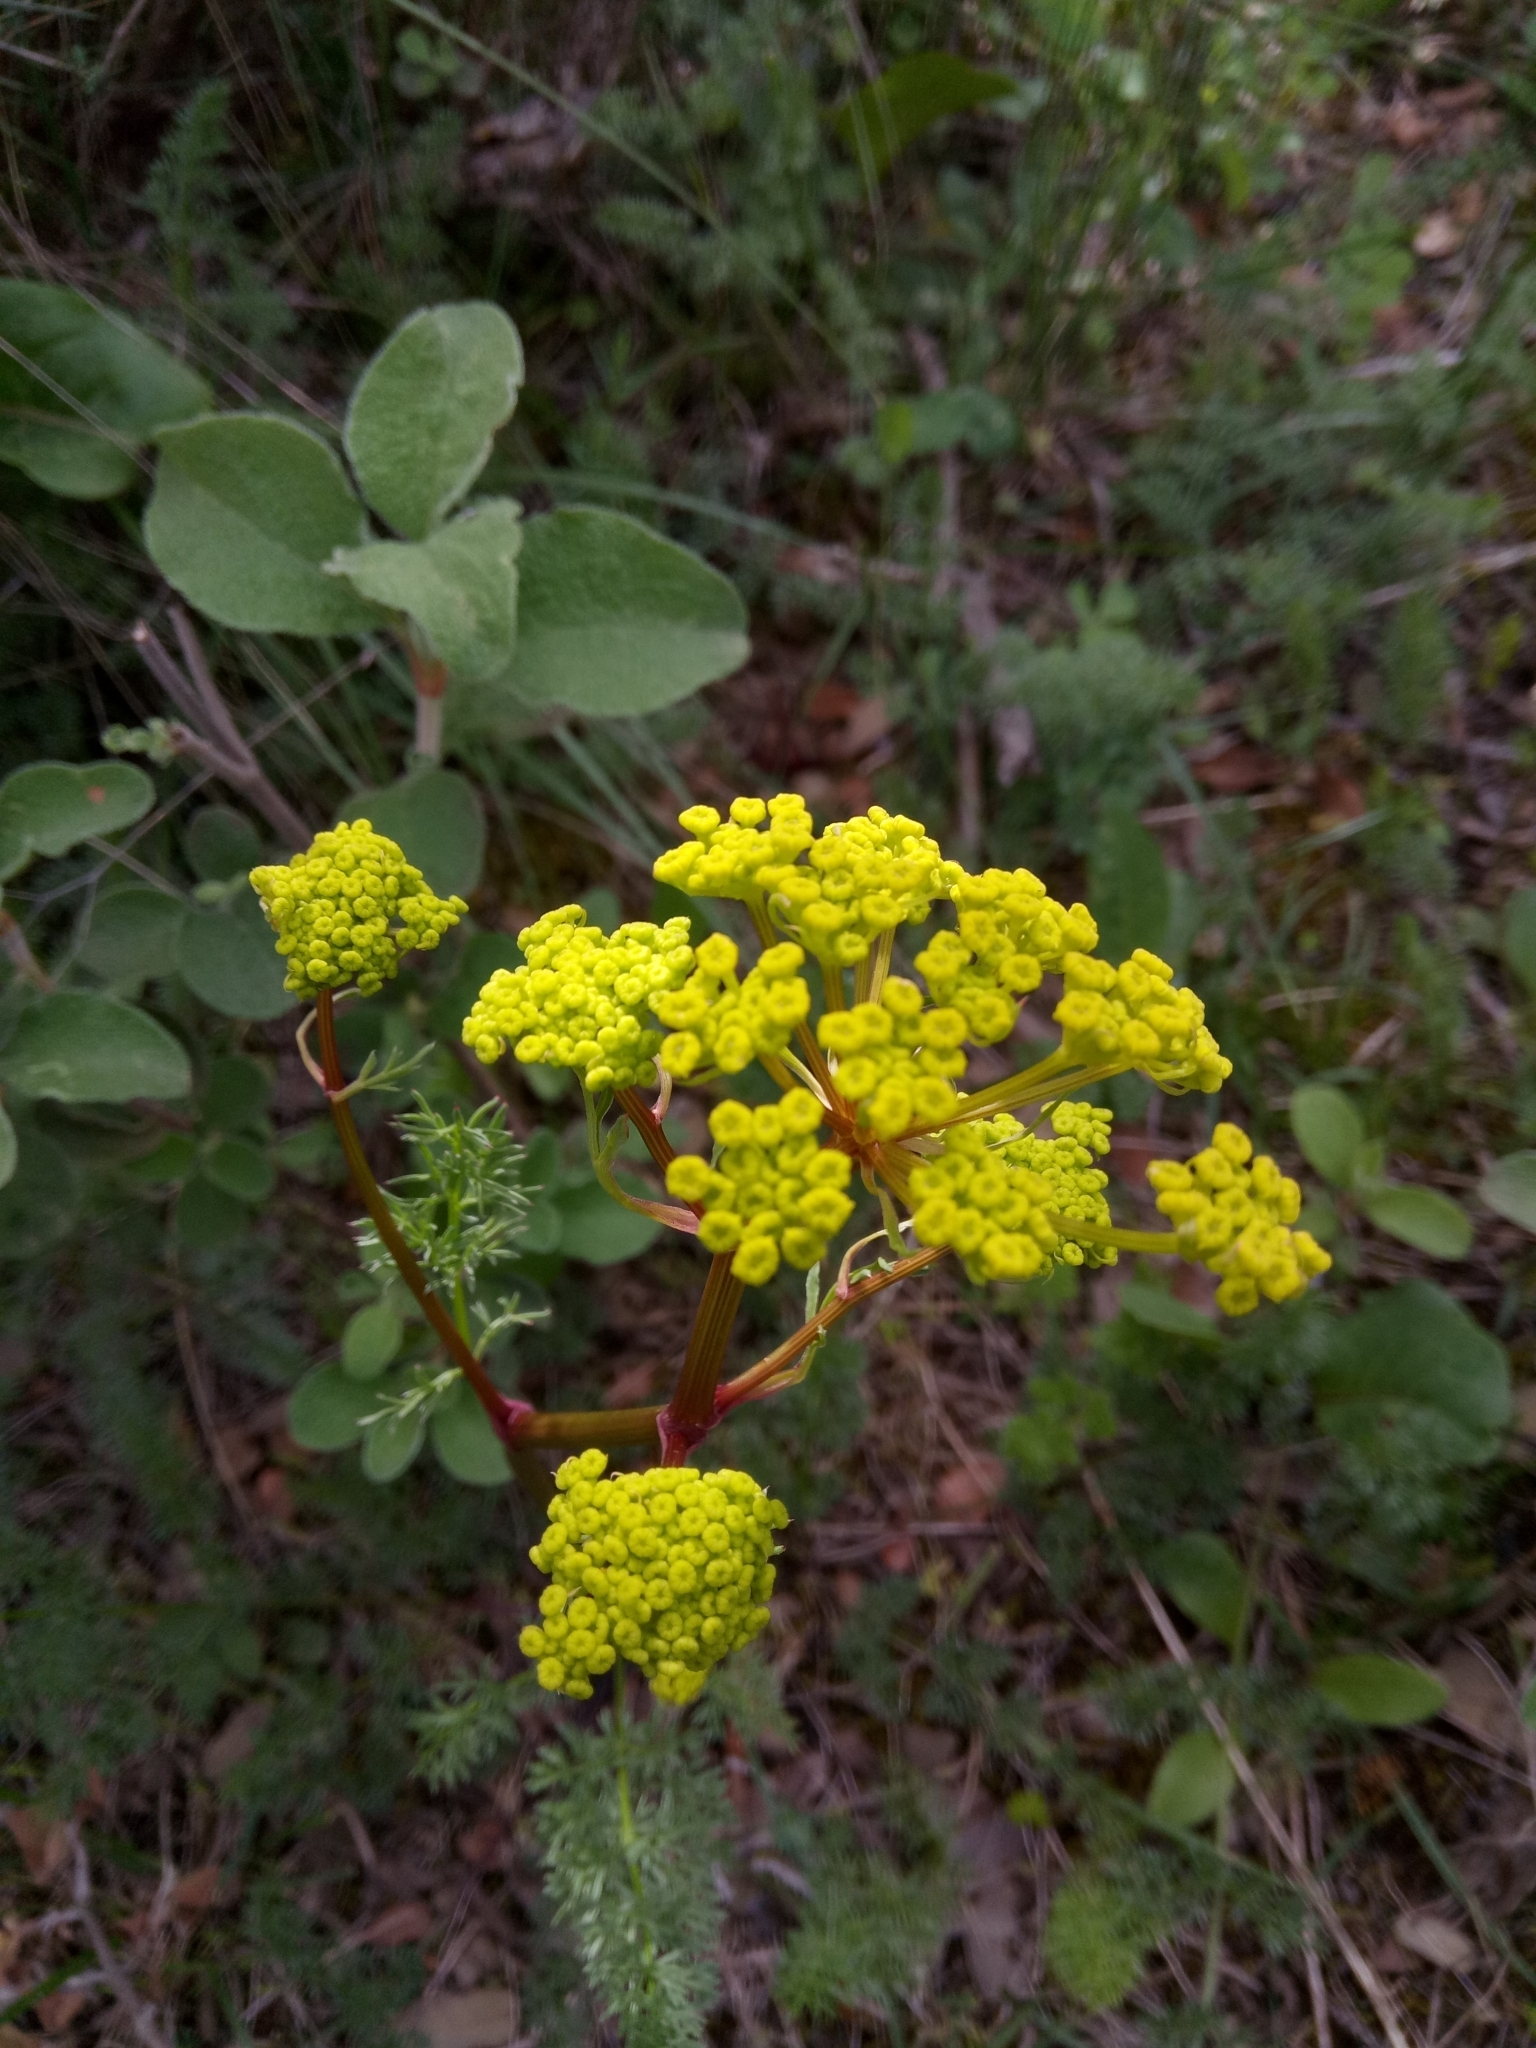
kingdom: Plantae
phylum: Tracheophyta
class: Magnoliopsida
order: Apiales
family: Apiaceae
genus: Ferulago
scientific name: Ferulago lutea
